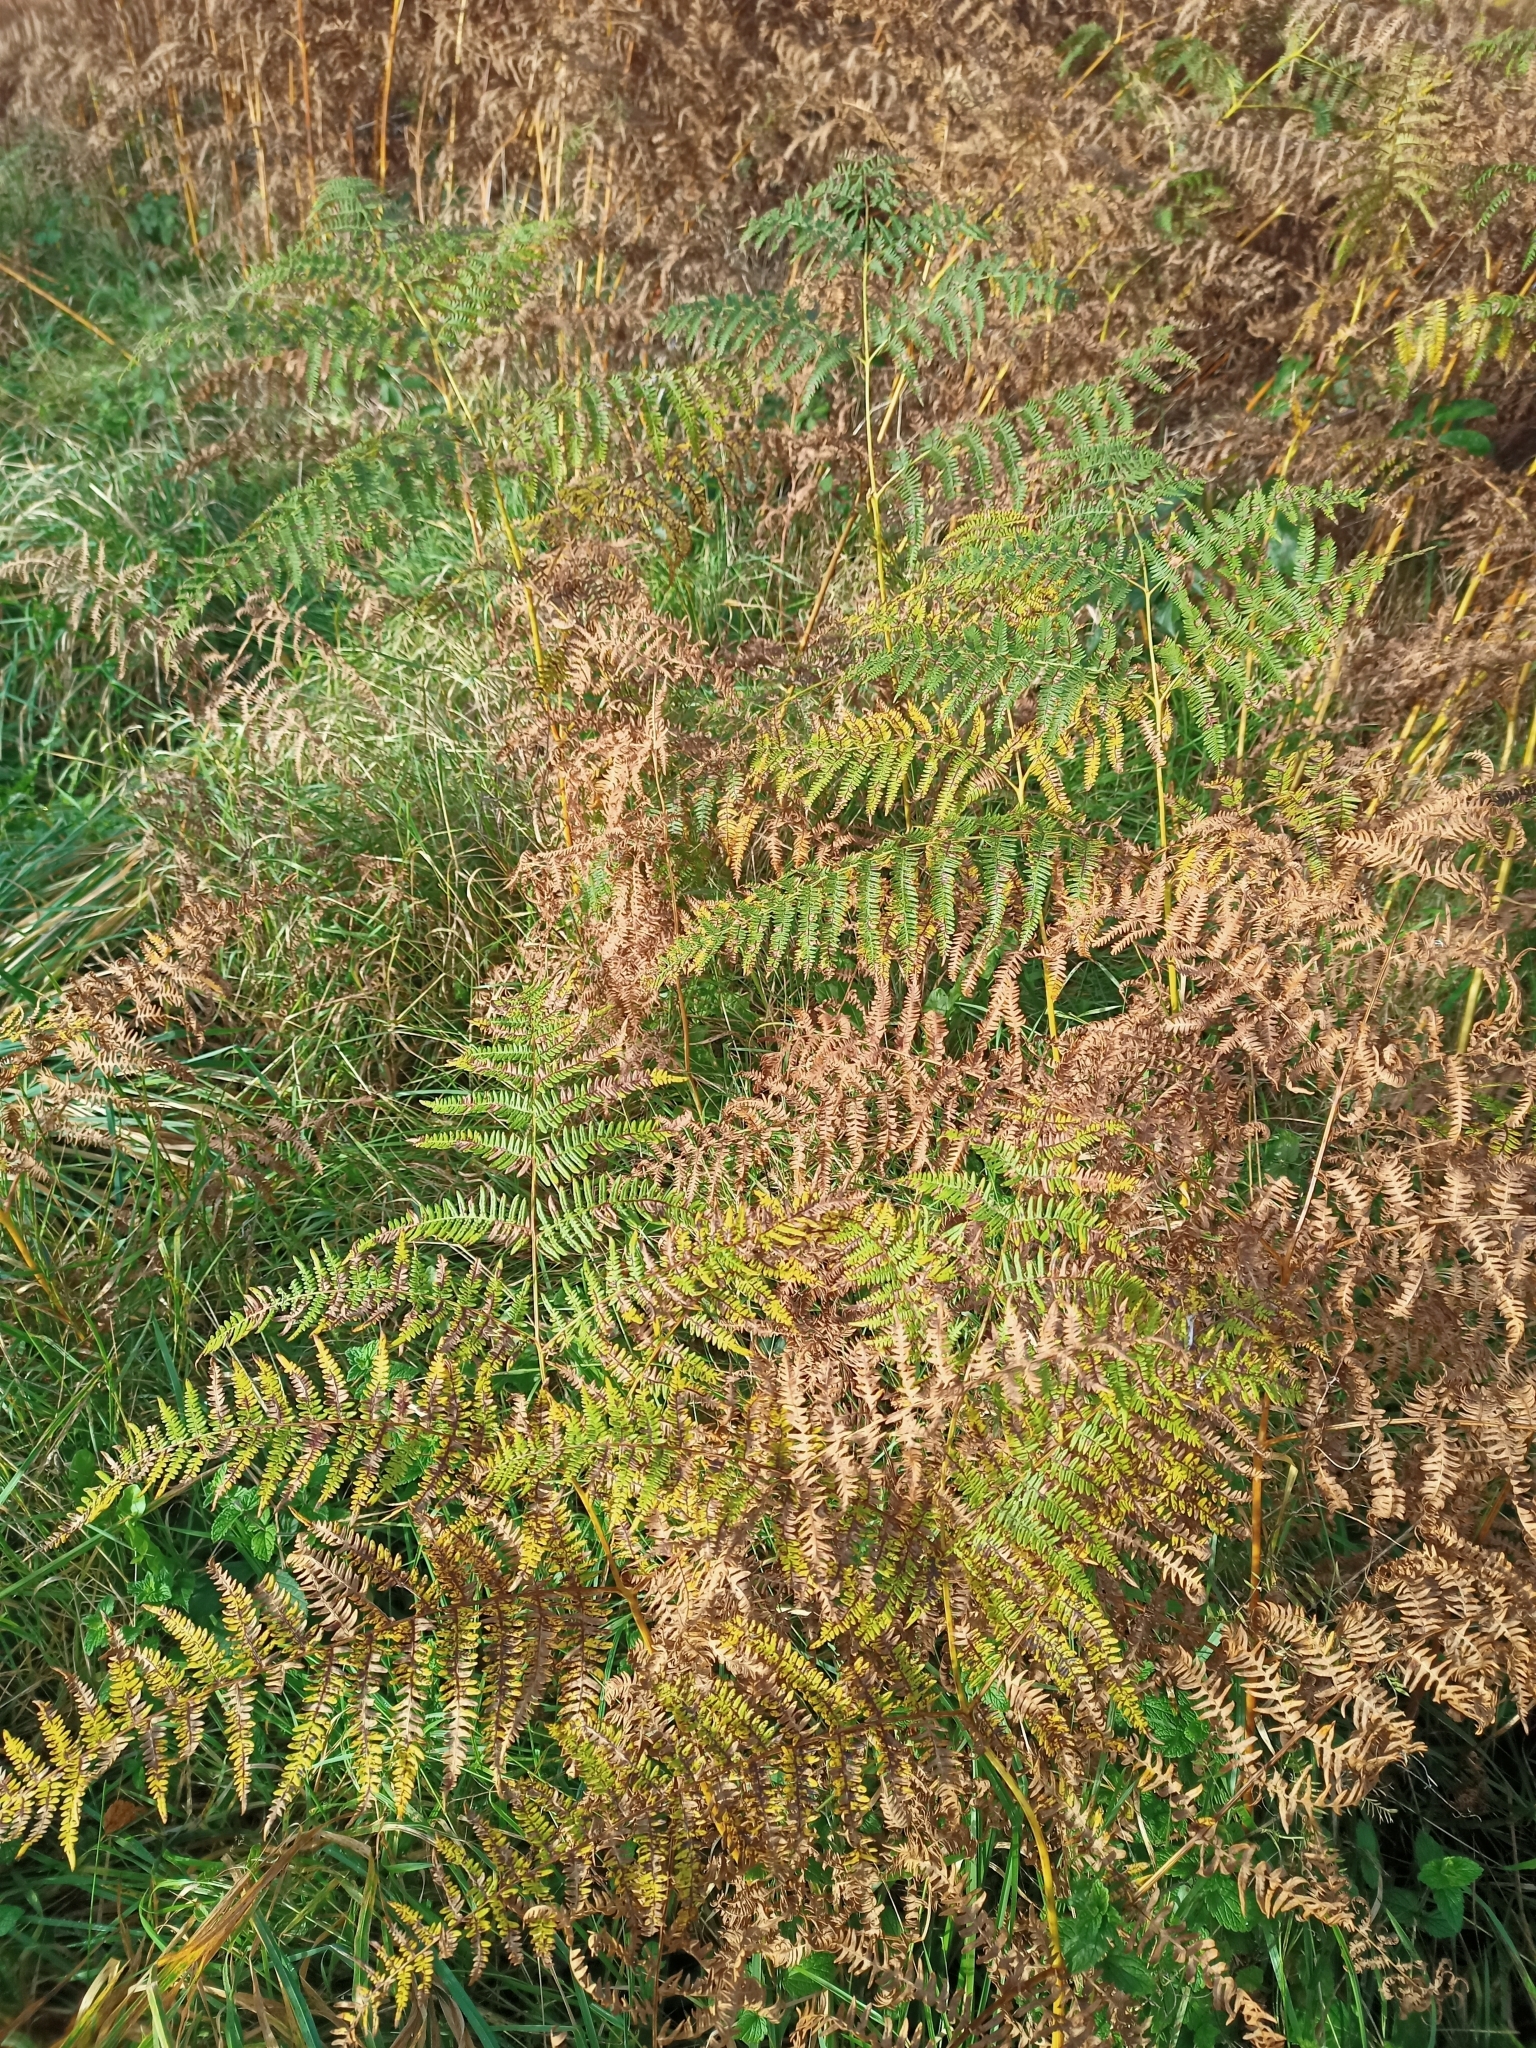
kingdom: Plantae
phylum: Tracheophyta
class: Polypodiopsida
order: Polypodiales
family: Dennstaedtiaceae
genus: Pteridium
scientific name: Pteridium aquilinum
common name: Bracken
